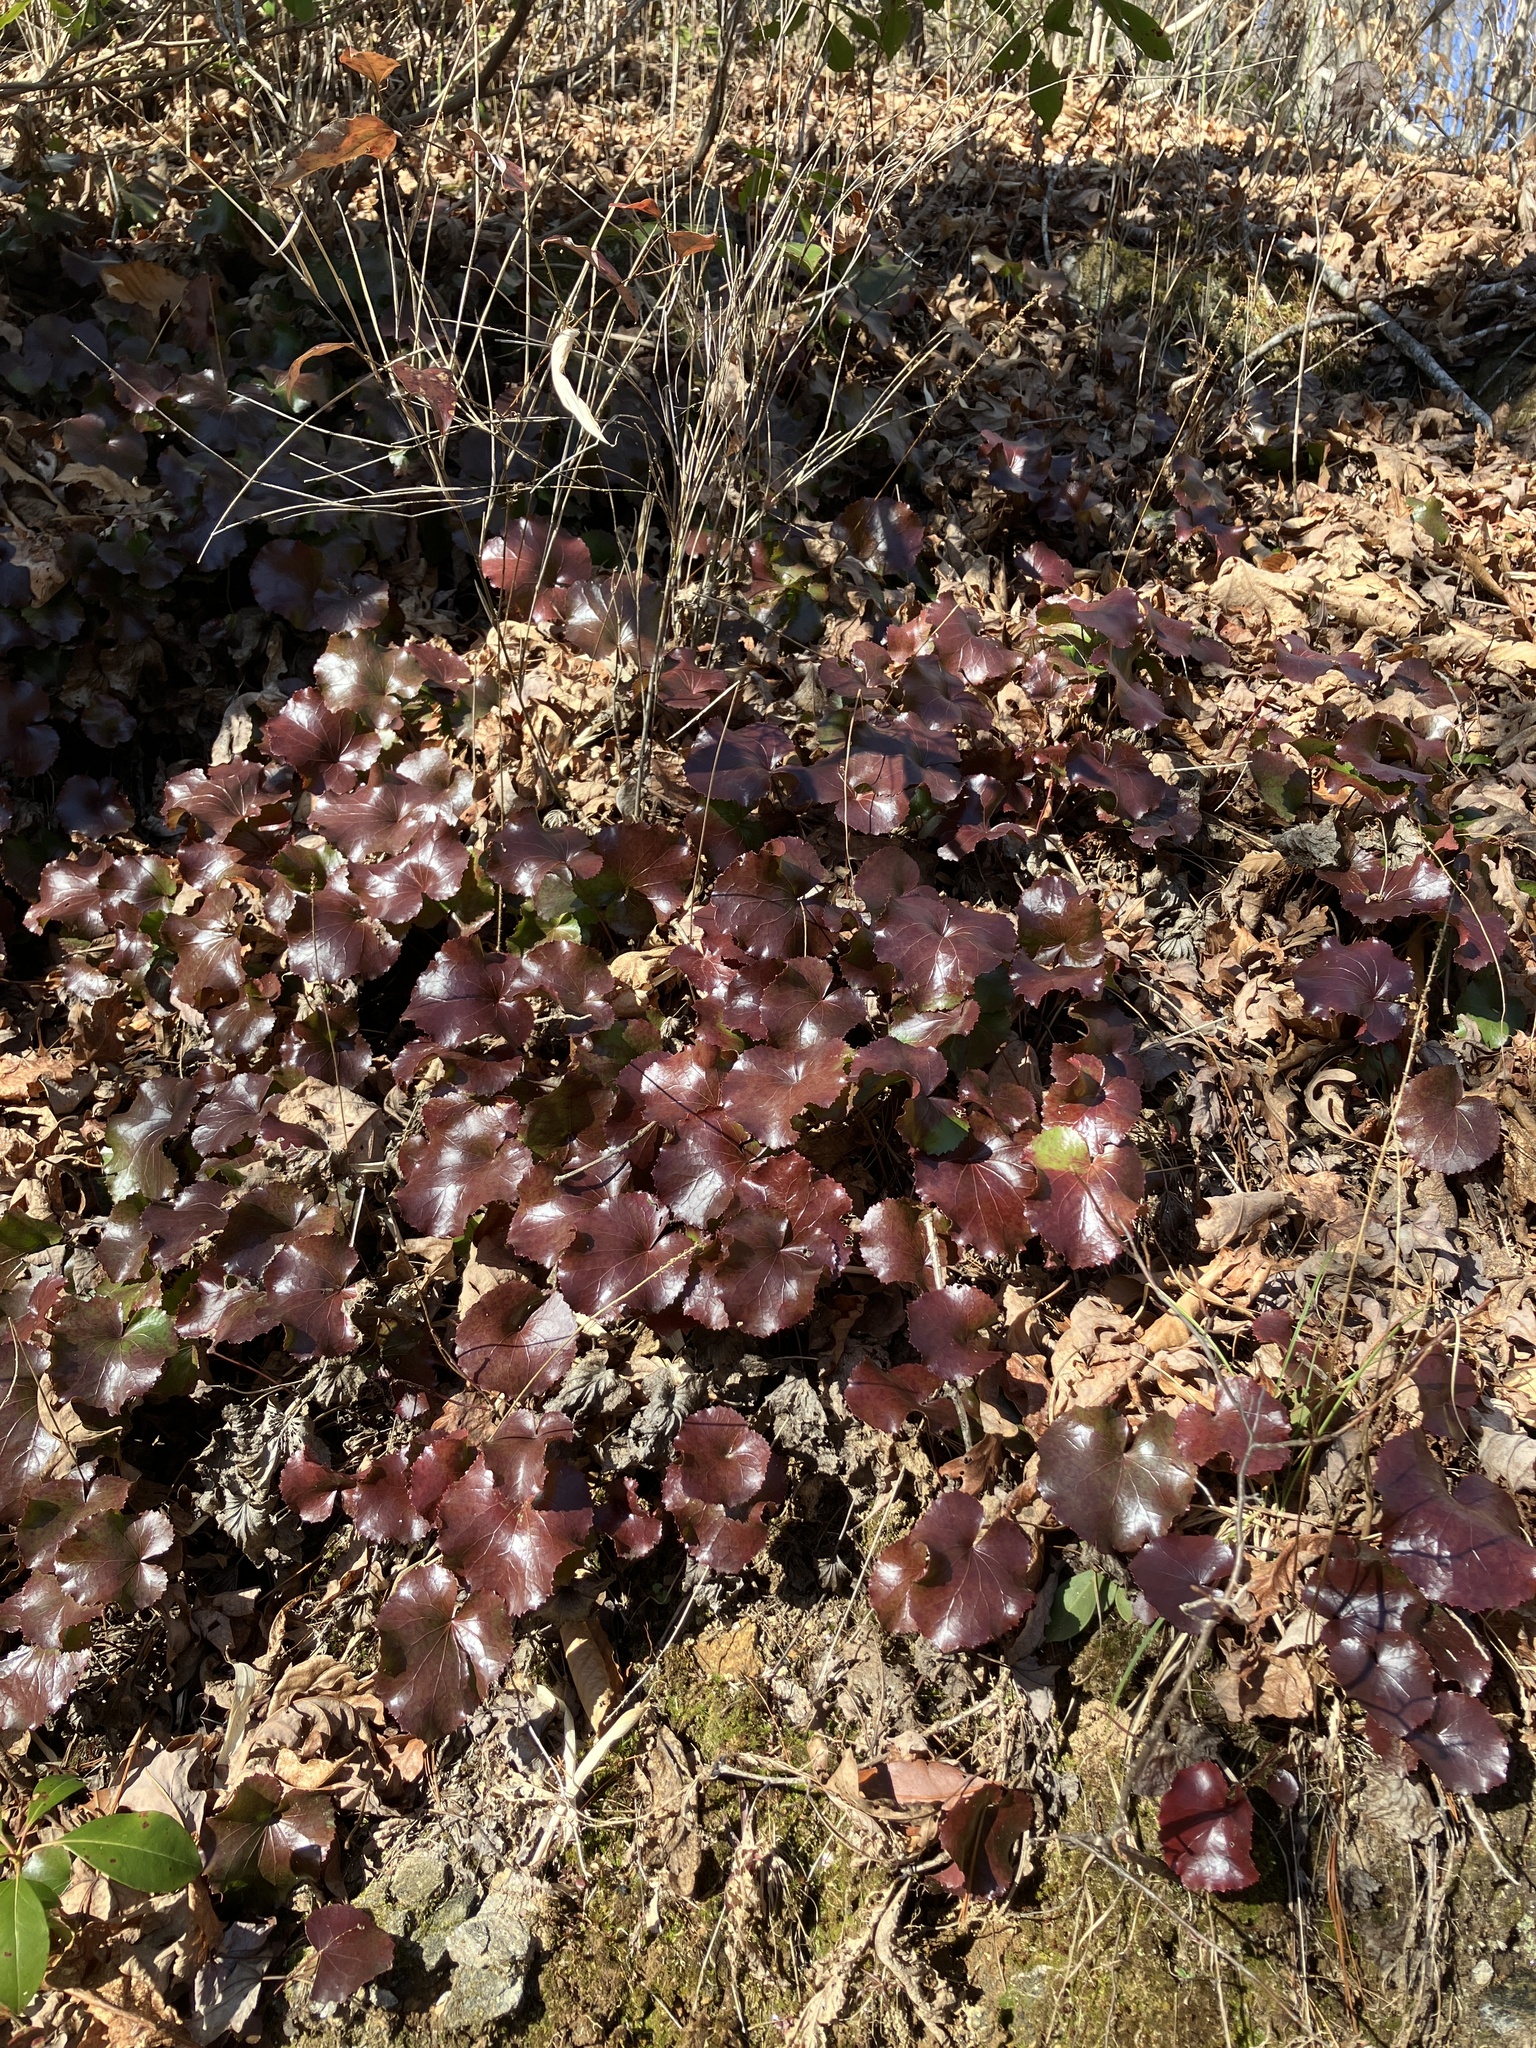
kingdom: Plantae
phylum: Tracheophyta
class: Magnoliopsida
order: Ericales
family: Diapensiaceae
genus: Galax
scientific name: Galax urceolata
